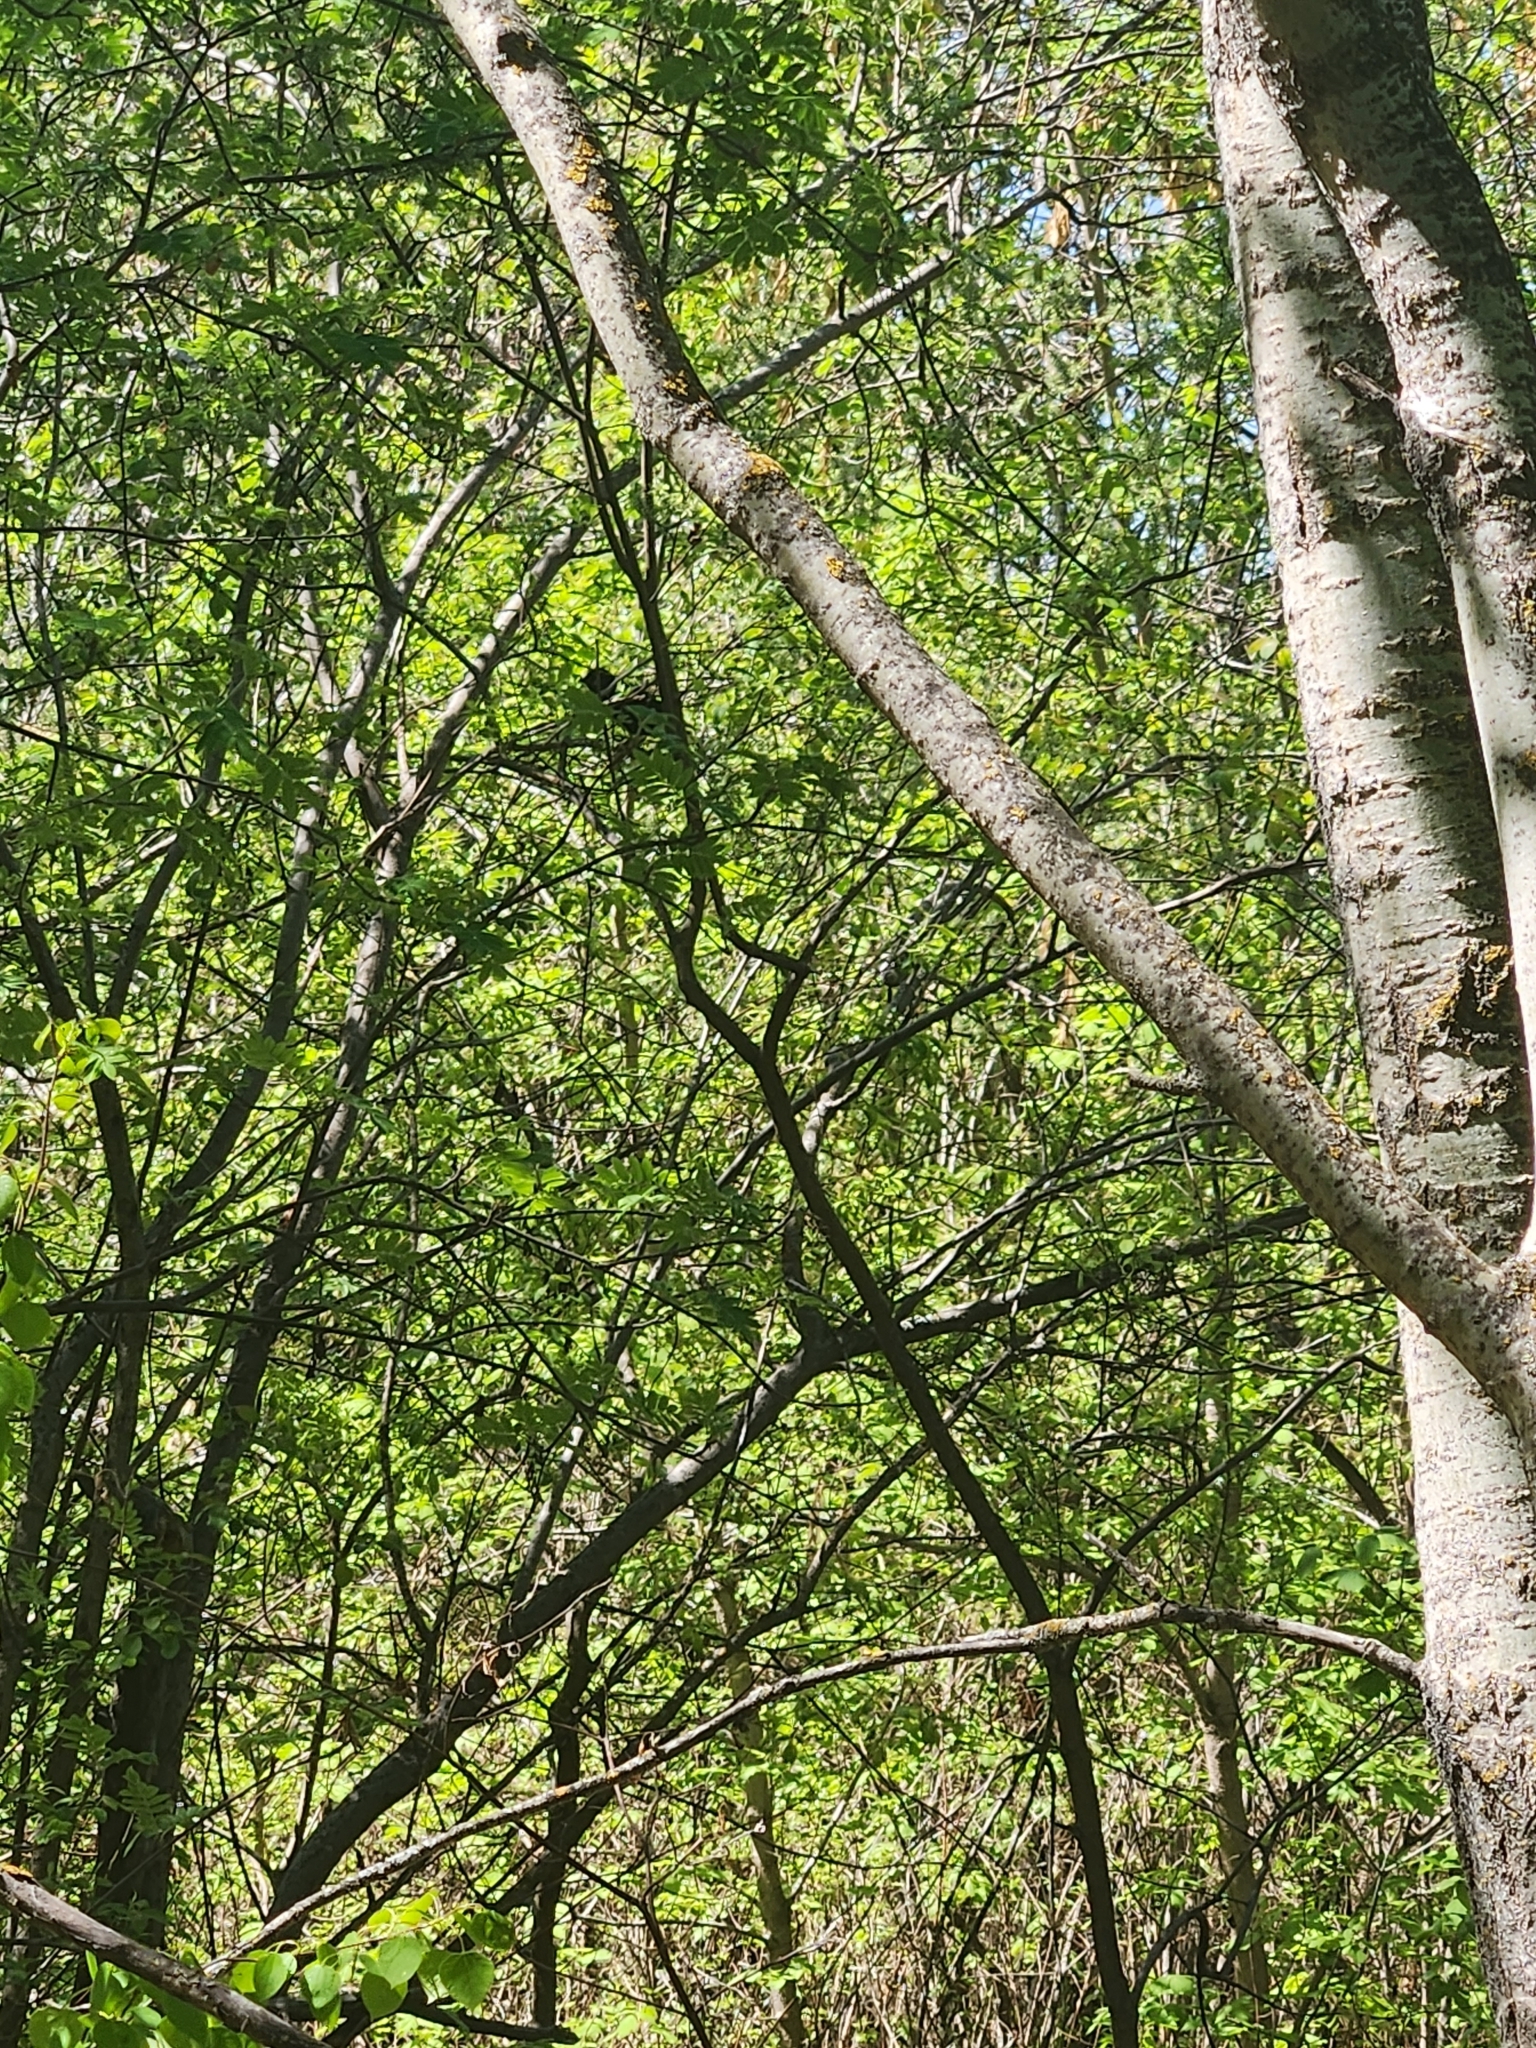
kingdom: Animalia
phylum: Chordata
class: Aves
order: Passeriformes
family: Icteridae
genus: Agelaius
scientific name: Agelaius phoeniceus
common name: Red-winged blackbird
